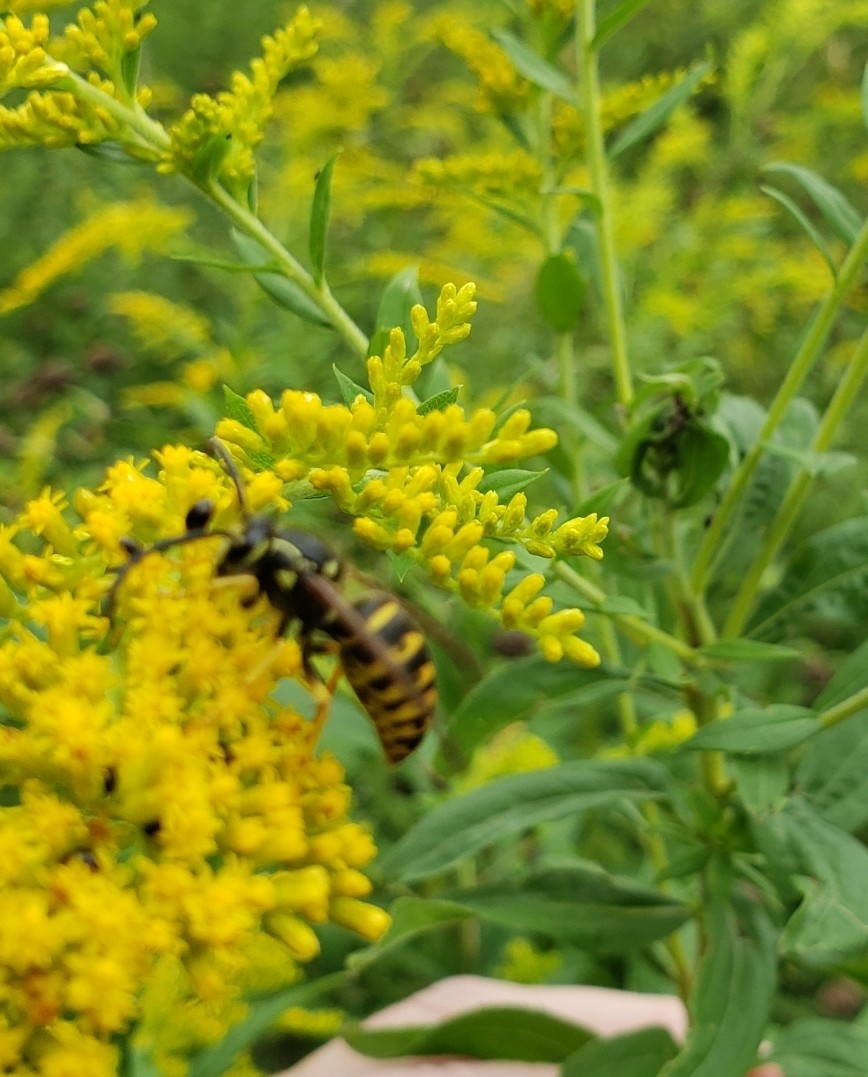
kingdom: Animalia
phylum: Arthropoda
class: Insecta
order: Hymenoptera
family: Vespidae
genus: Dolichovespula
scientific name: Dolichovespula arenaria
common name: Aerial yellowjacket
